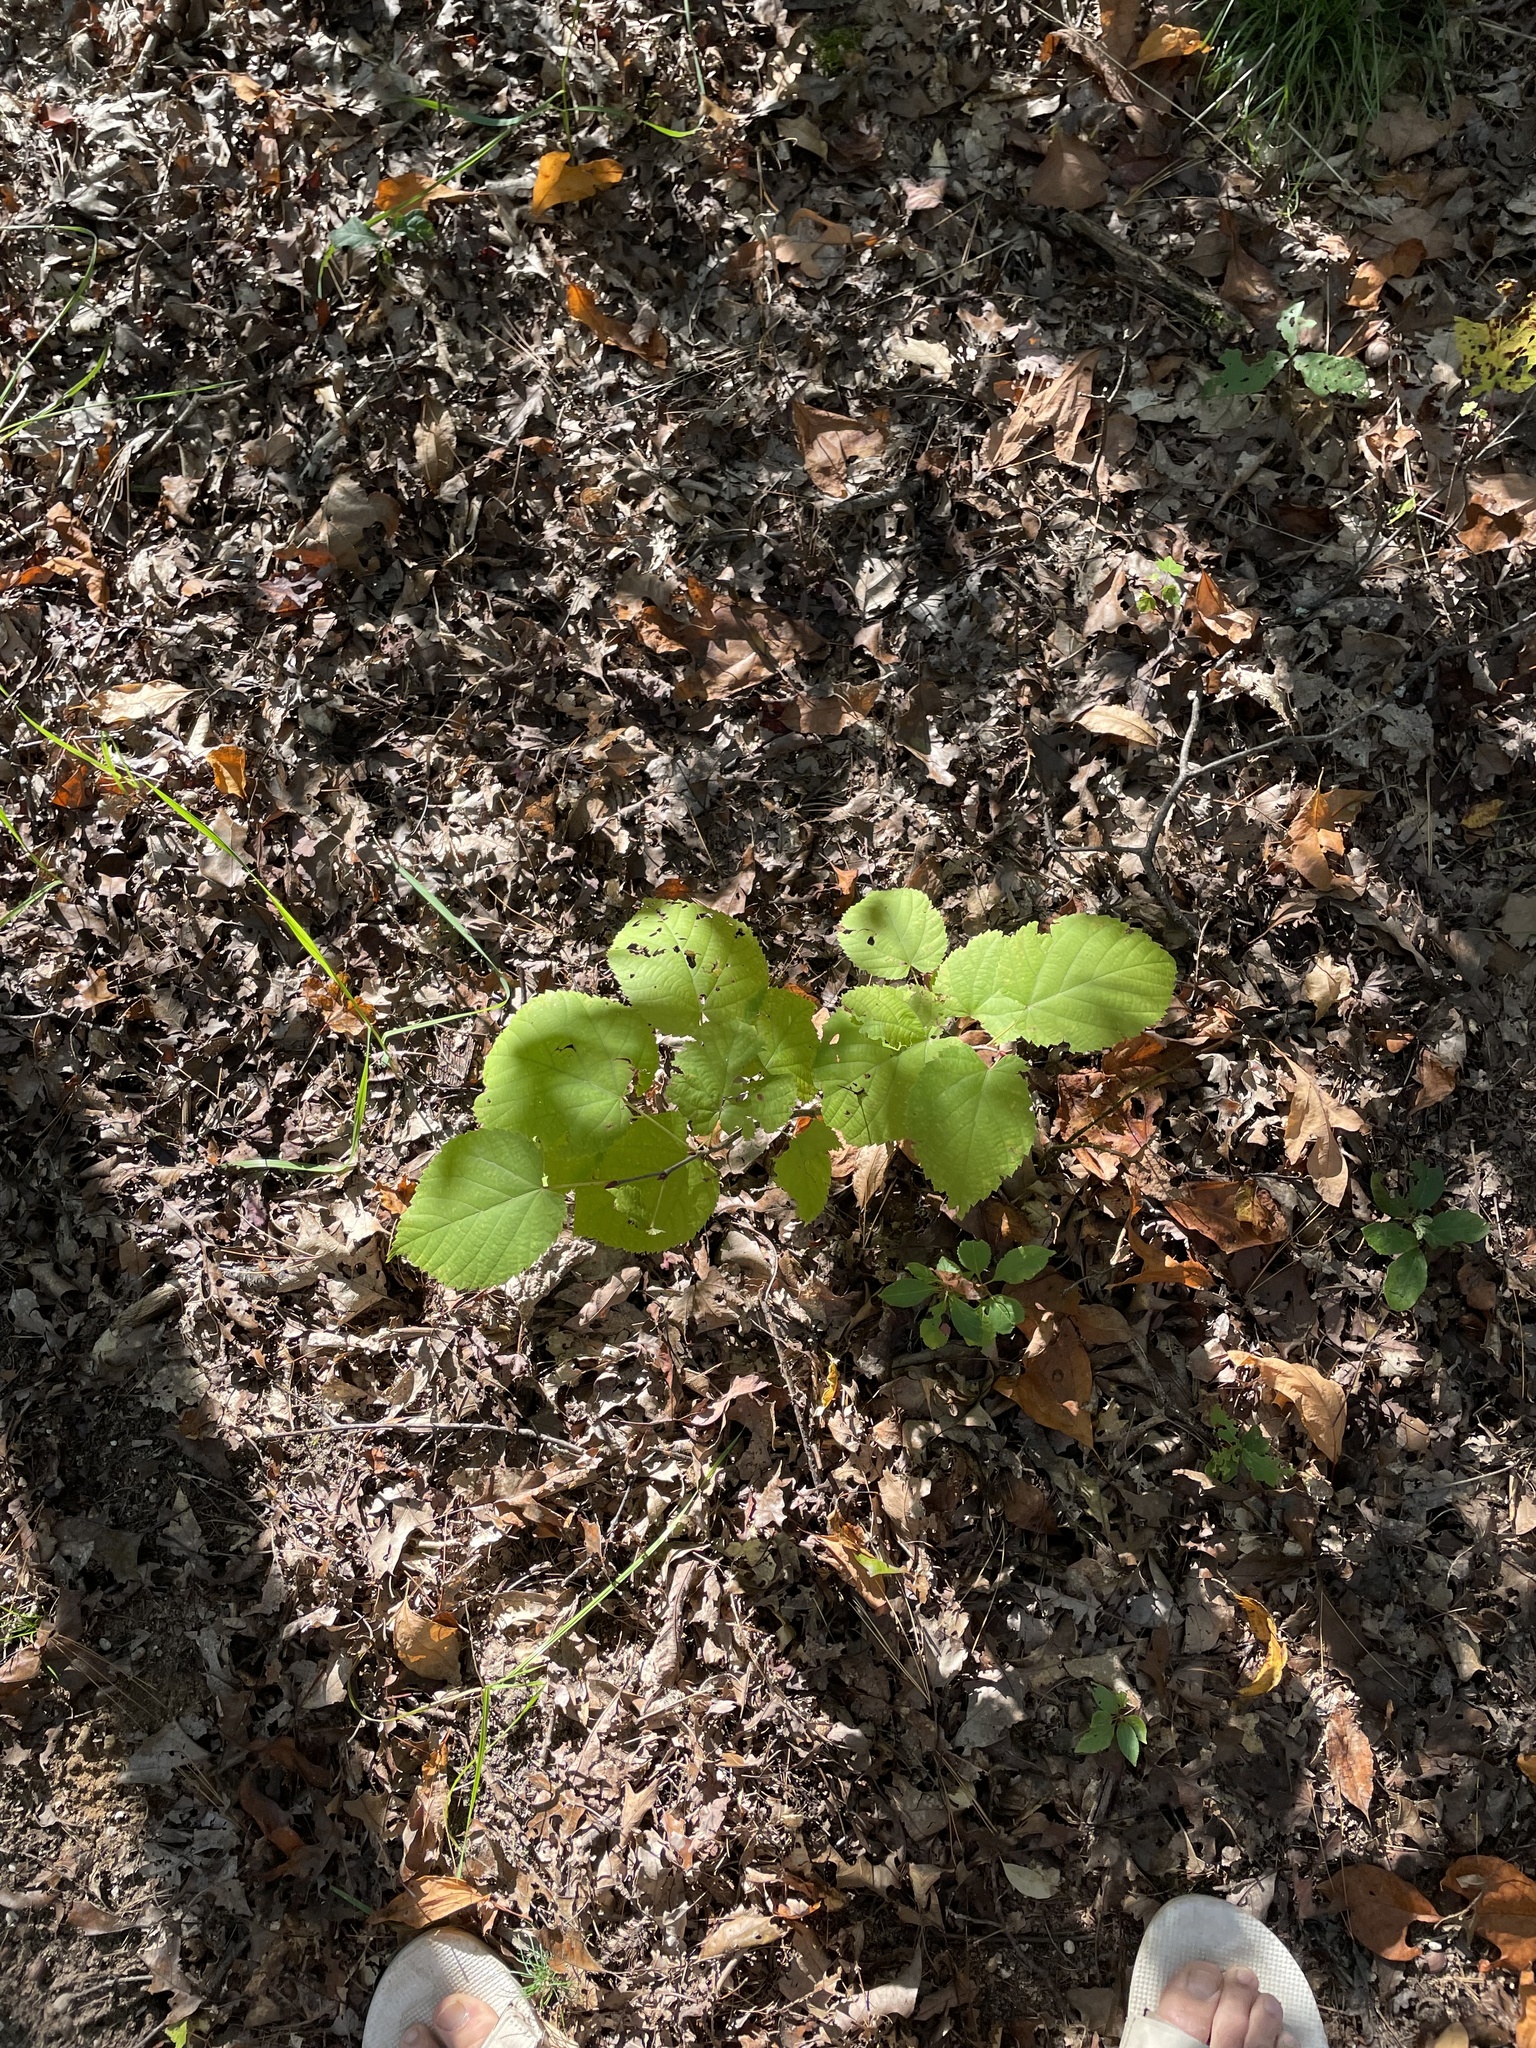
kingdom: Plantae
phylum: Tracheophyta
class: Magnoliopsida
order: Malvales
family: Malvaceae
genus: Tilia
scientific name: Tilia americana
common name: Basswood
